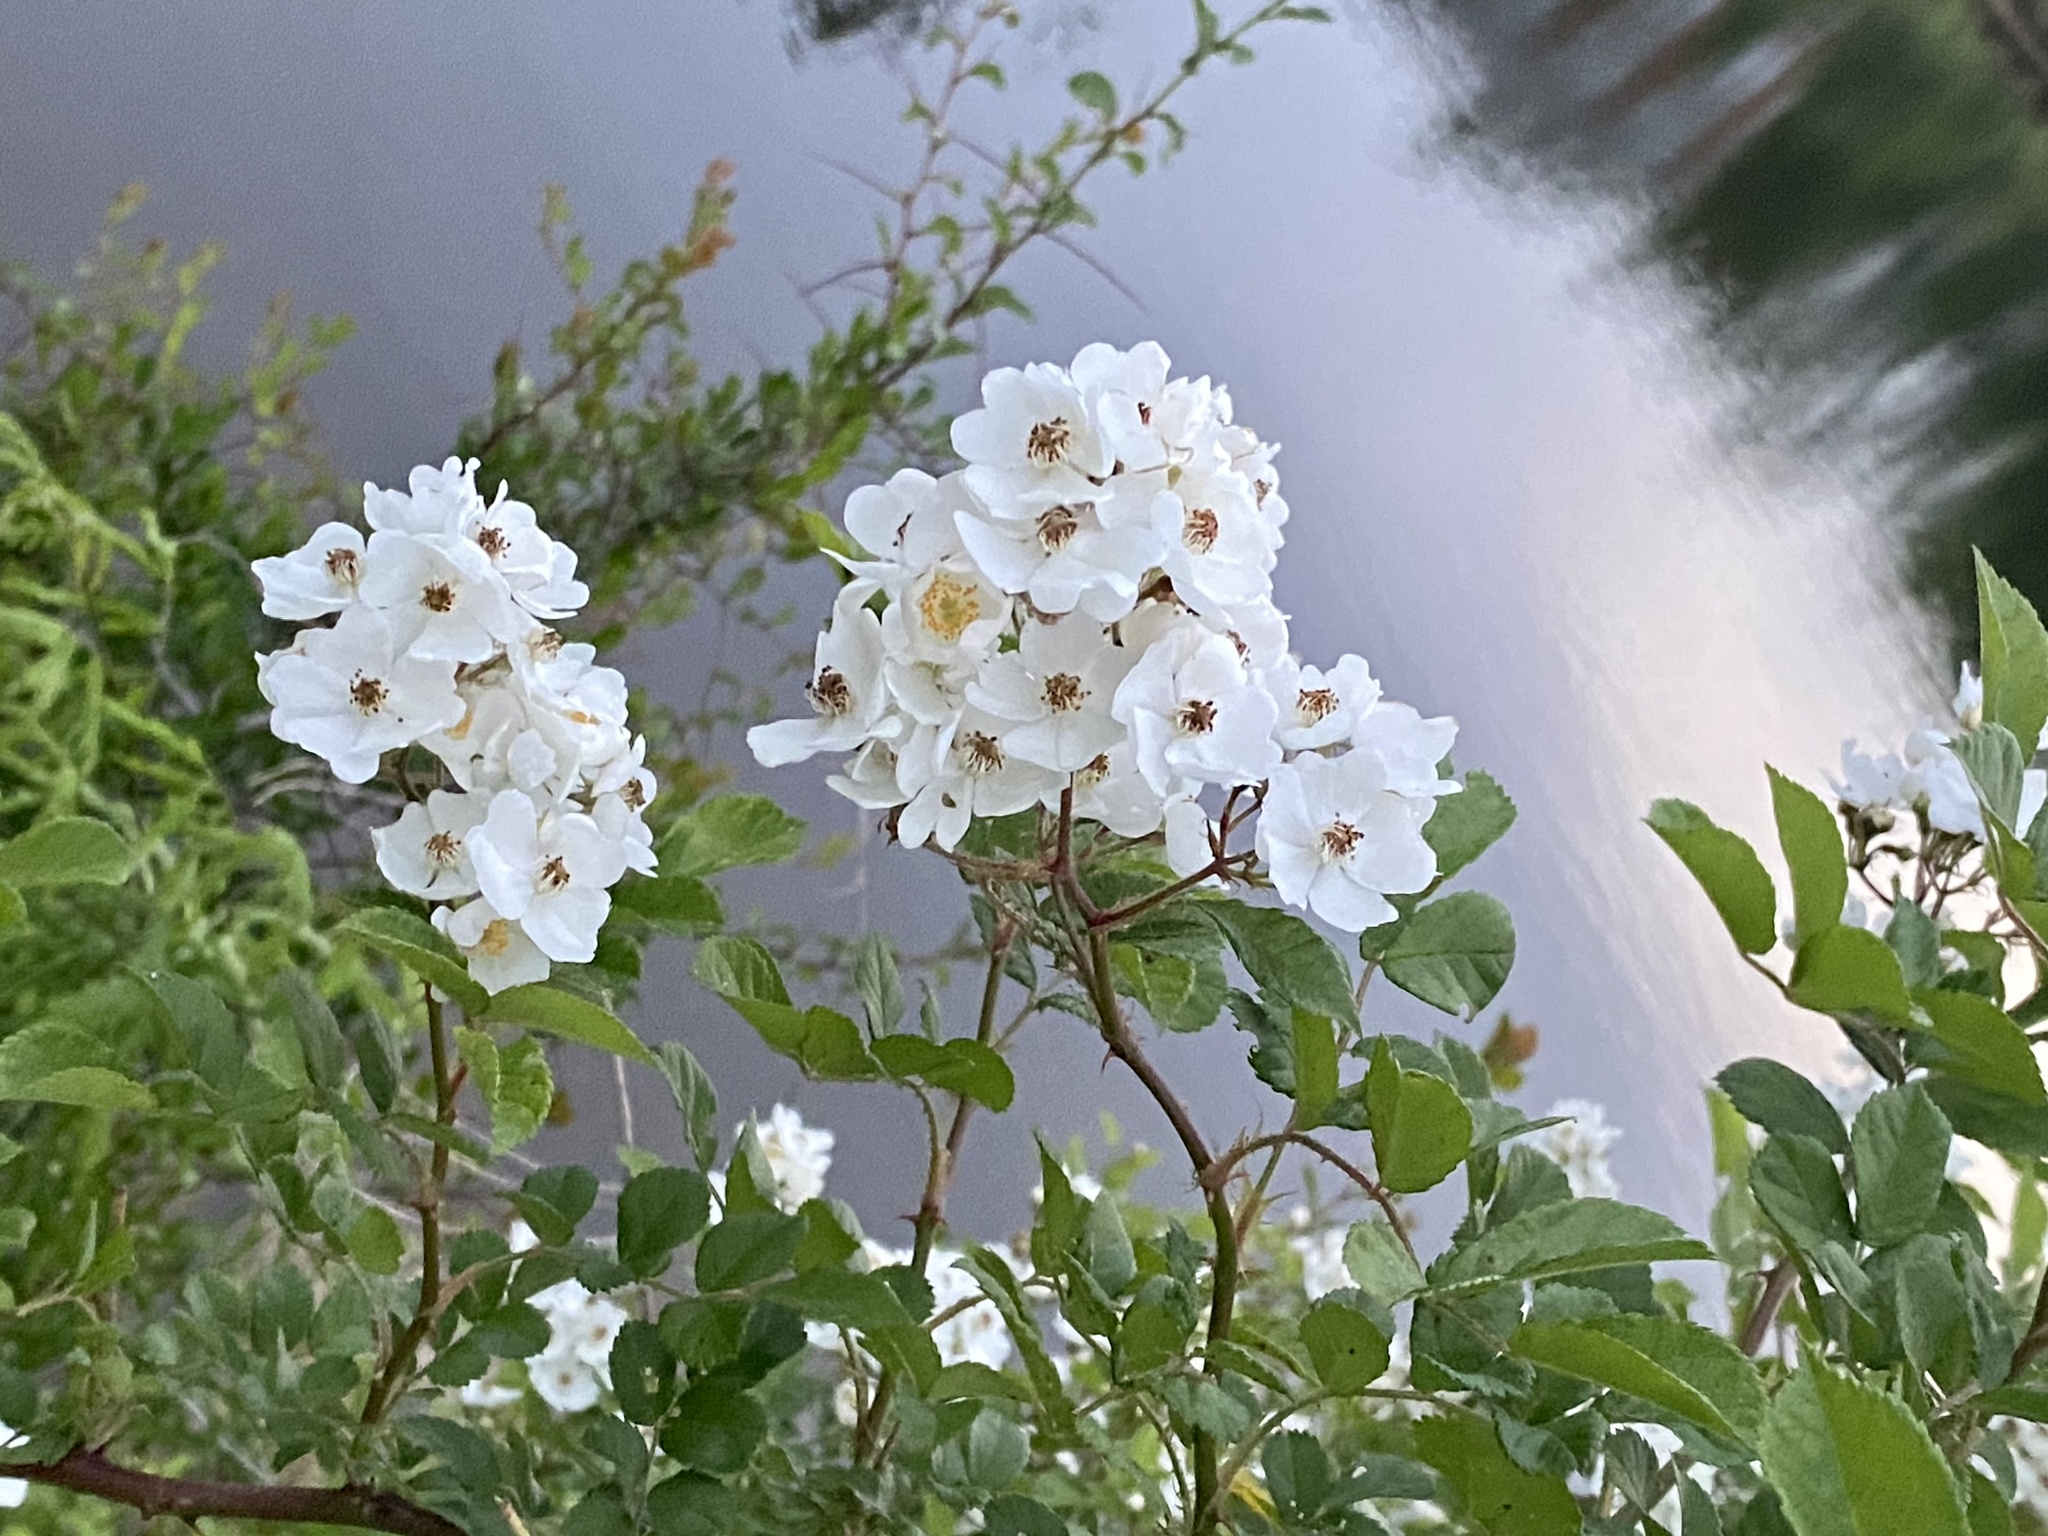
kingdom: Plantae
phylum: Tracheophyta
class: Magnoliopsida
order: Rosales
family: Rosaceae
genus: Rosa
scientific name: Rosa multiflora
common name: Multiflora rose
